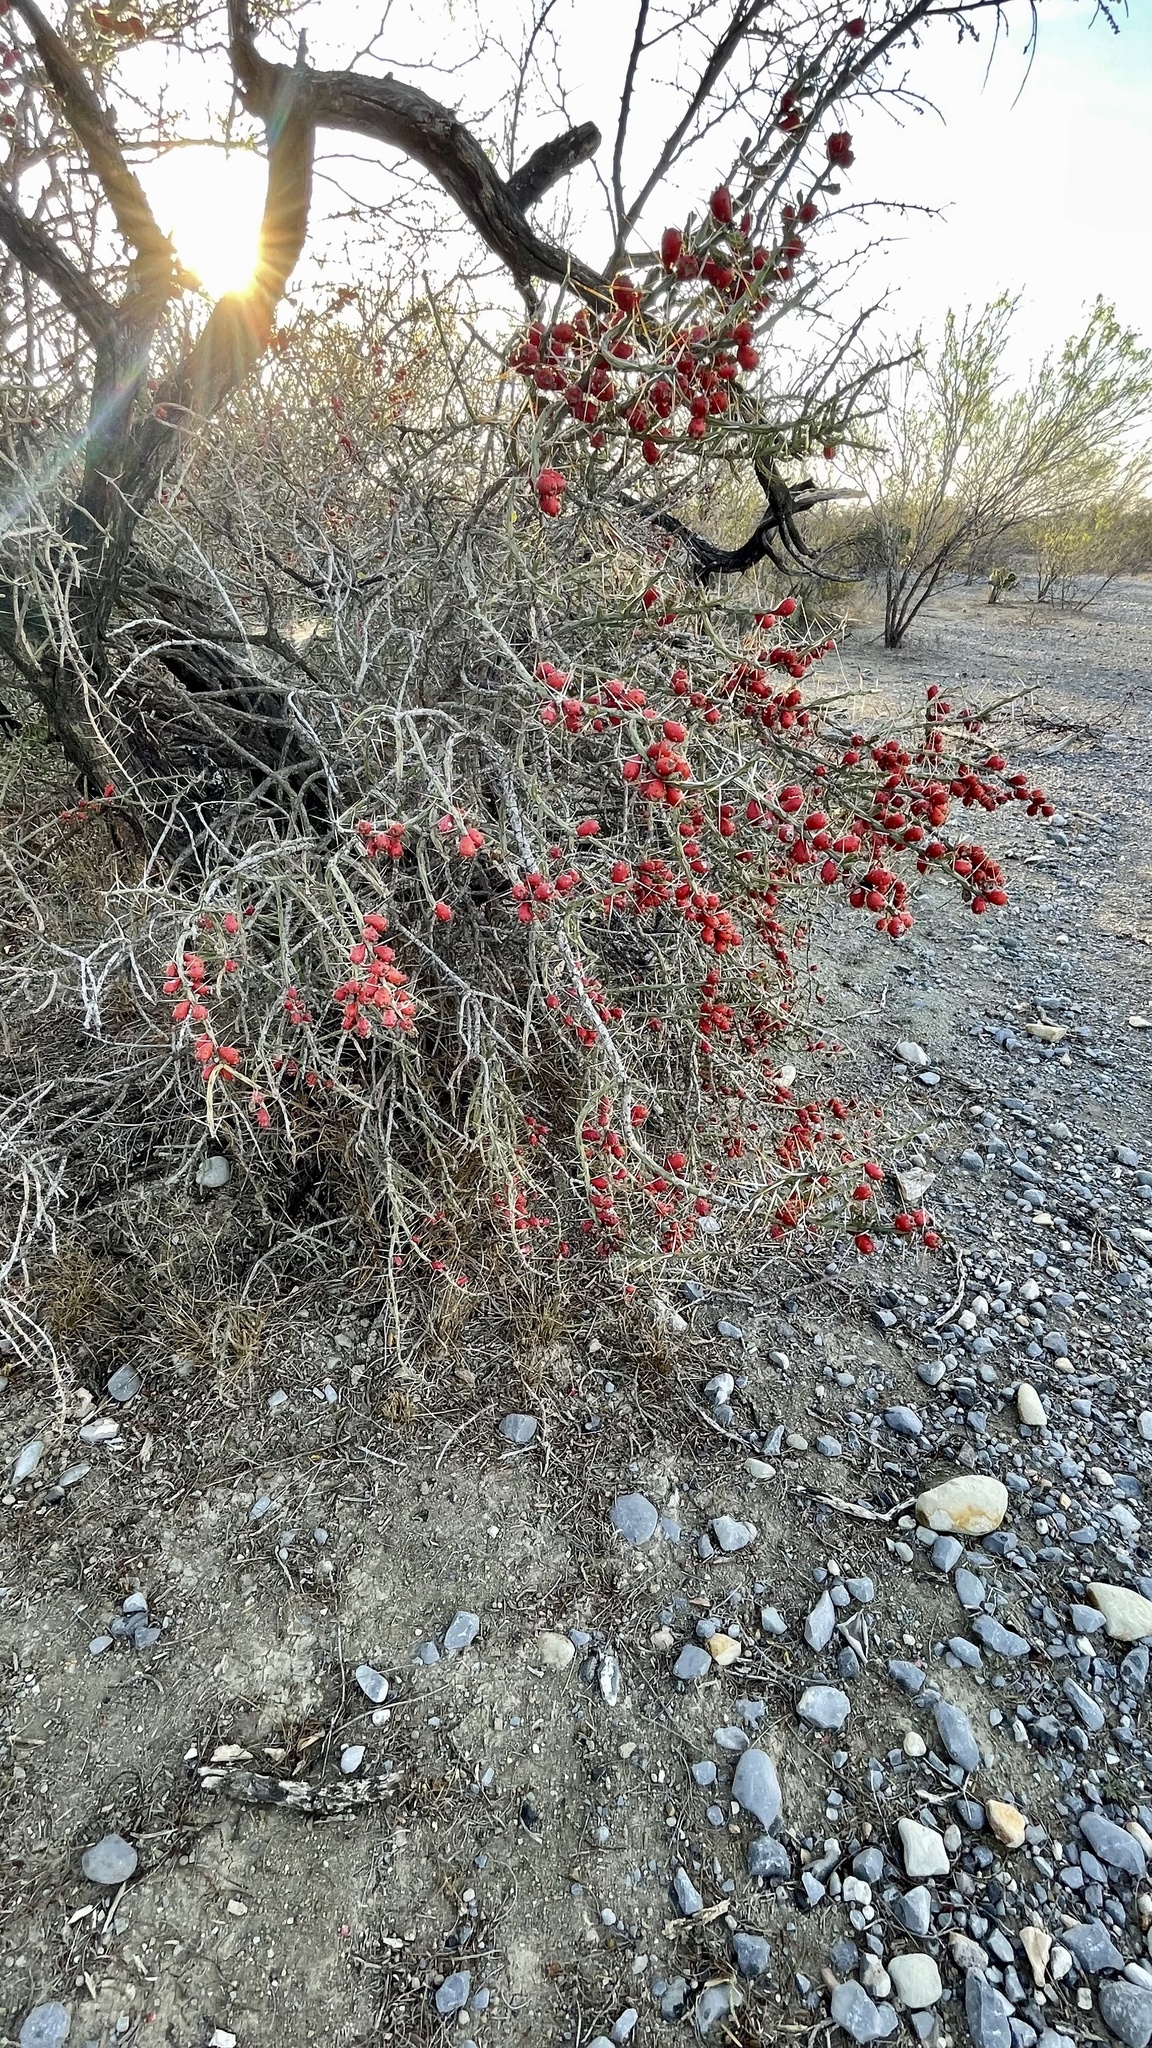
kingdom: Plantae
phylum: Tracheophyta
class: Magnoliopsida
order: Caryophyllales
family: Cactaceae
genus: Cylindropuntia
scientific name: Cylindropuntia leptocaulis
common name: Christmas cactus
